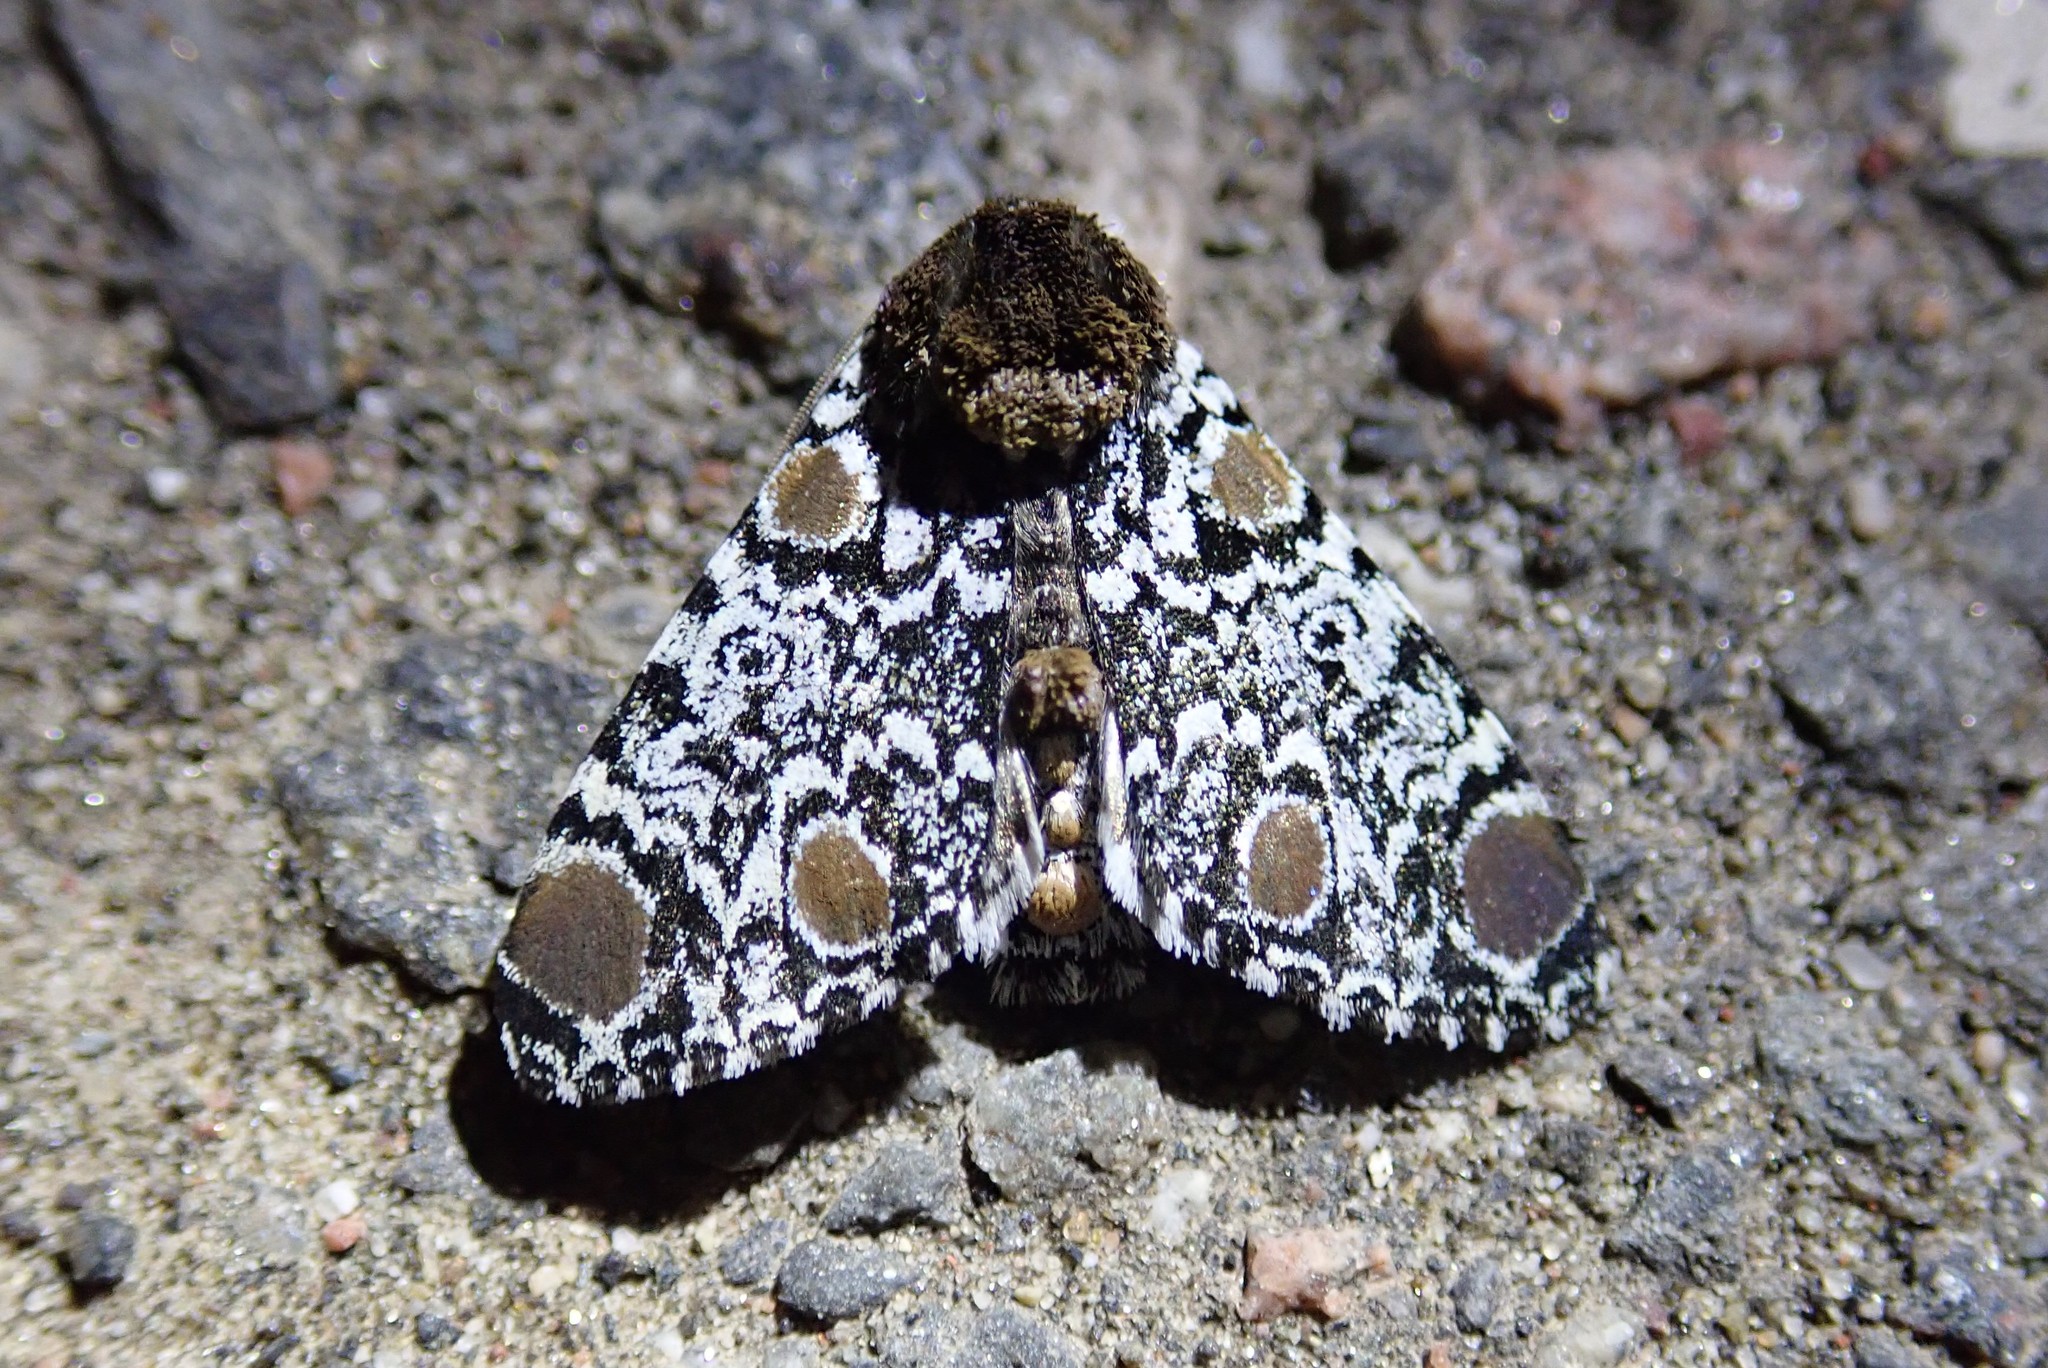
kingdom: Animalia
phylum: Arthropoda
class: Insecta
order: Lepidoptera
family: Noctuidae
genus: Harrisimemna
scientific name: Harrisimemna trisignata
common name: Harris threespot
